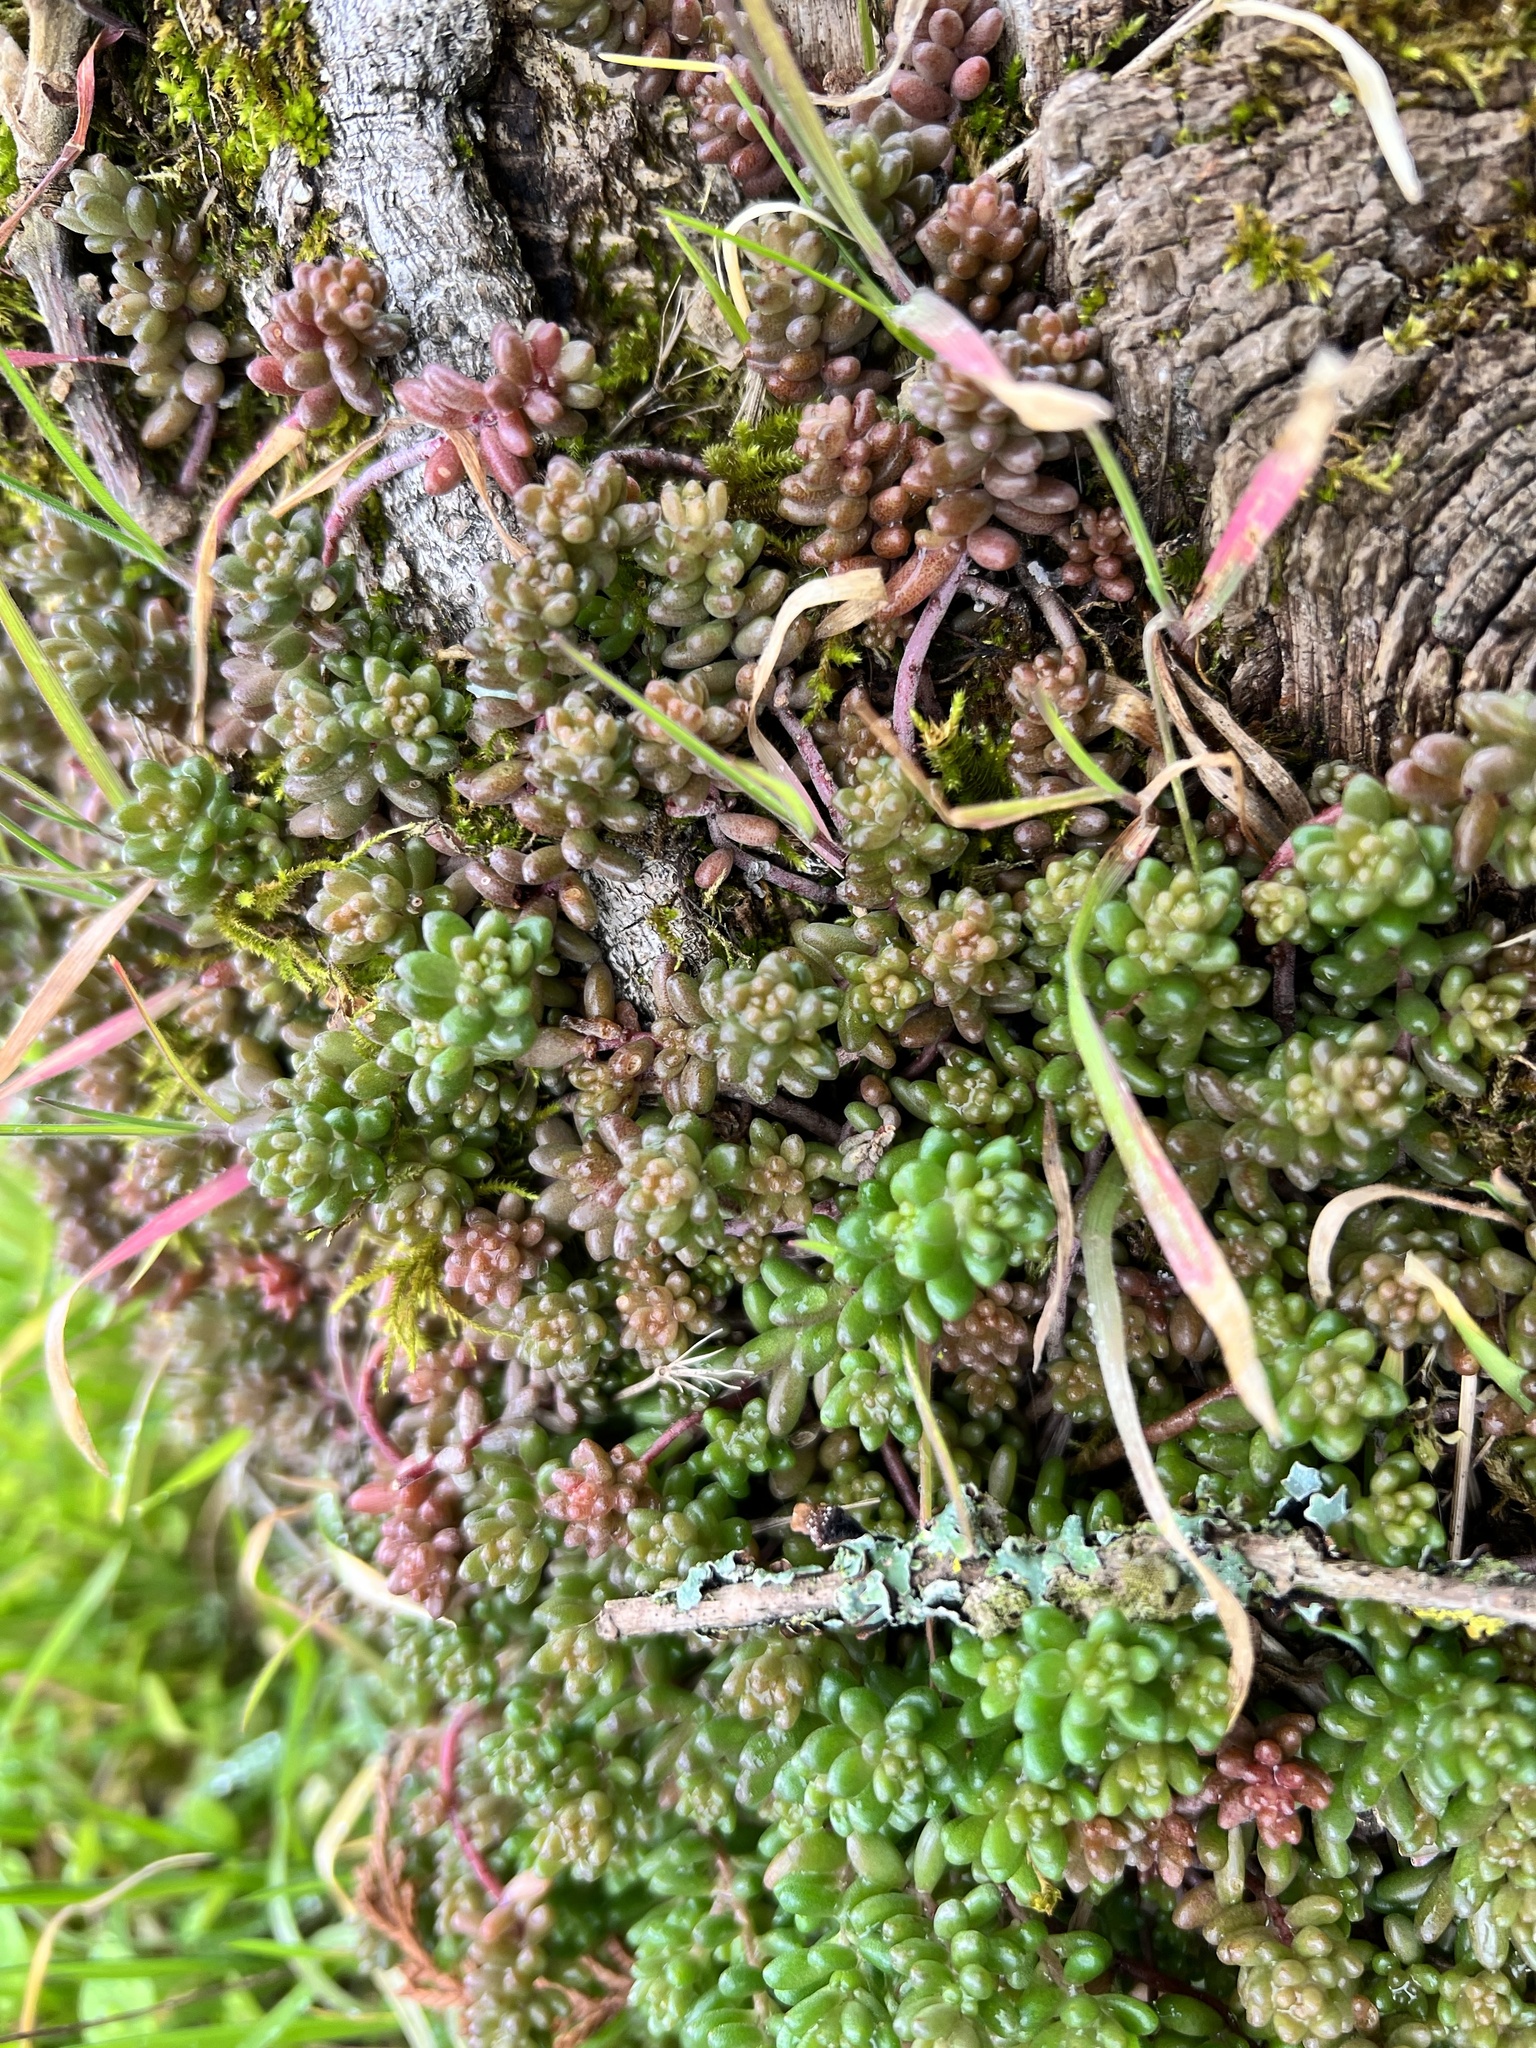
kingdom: Plantae
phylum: Tracheophyta
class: Magnoliopsida
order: Saxifragales
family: Crassulaceae
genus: Sedum
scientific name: Sedum album
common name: White stonecrop
